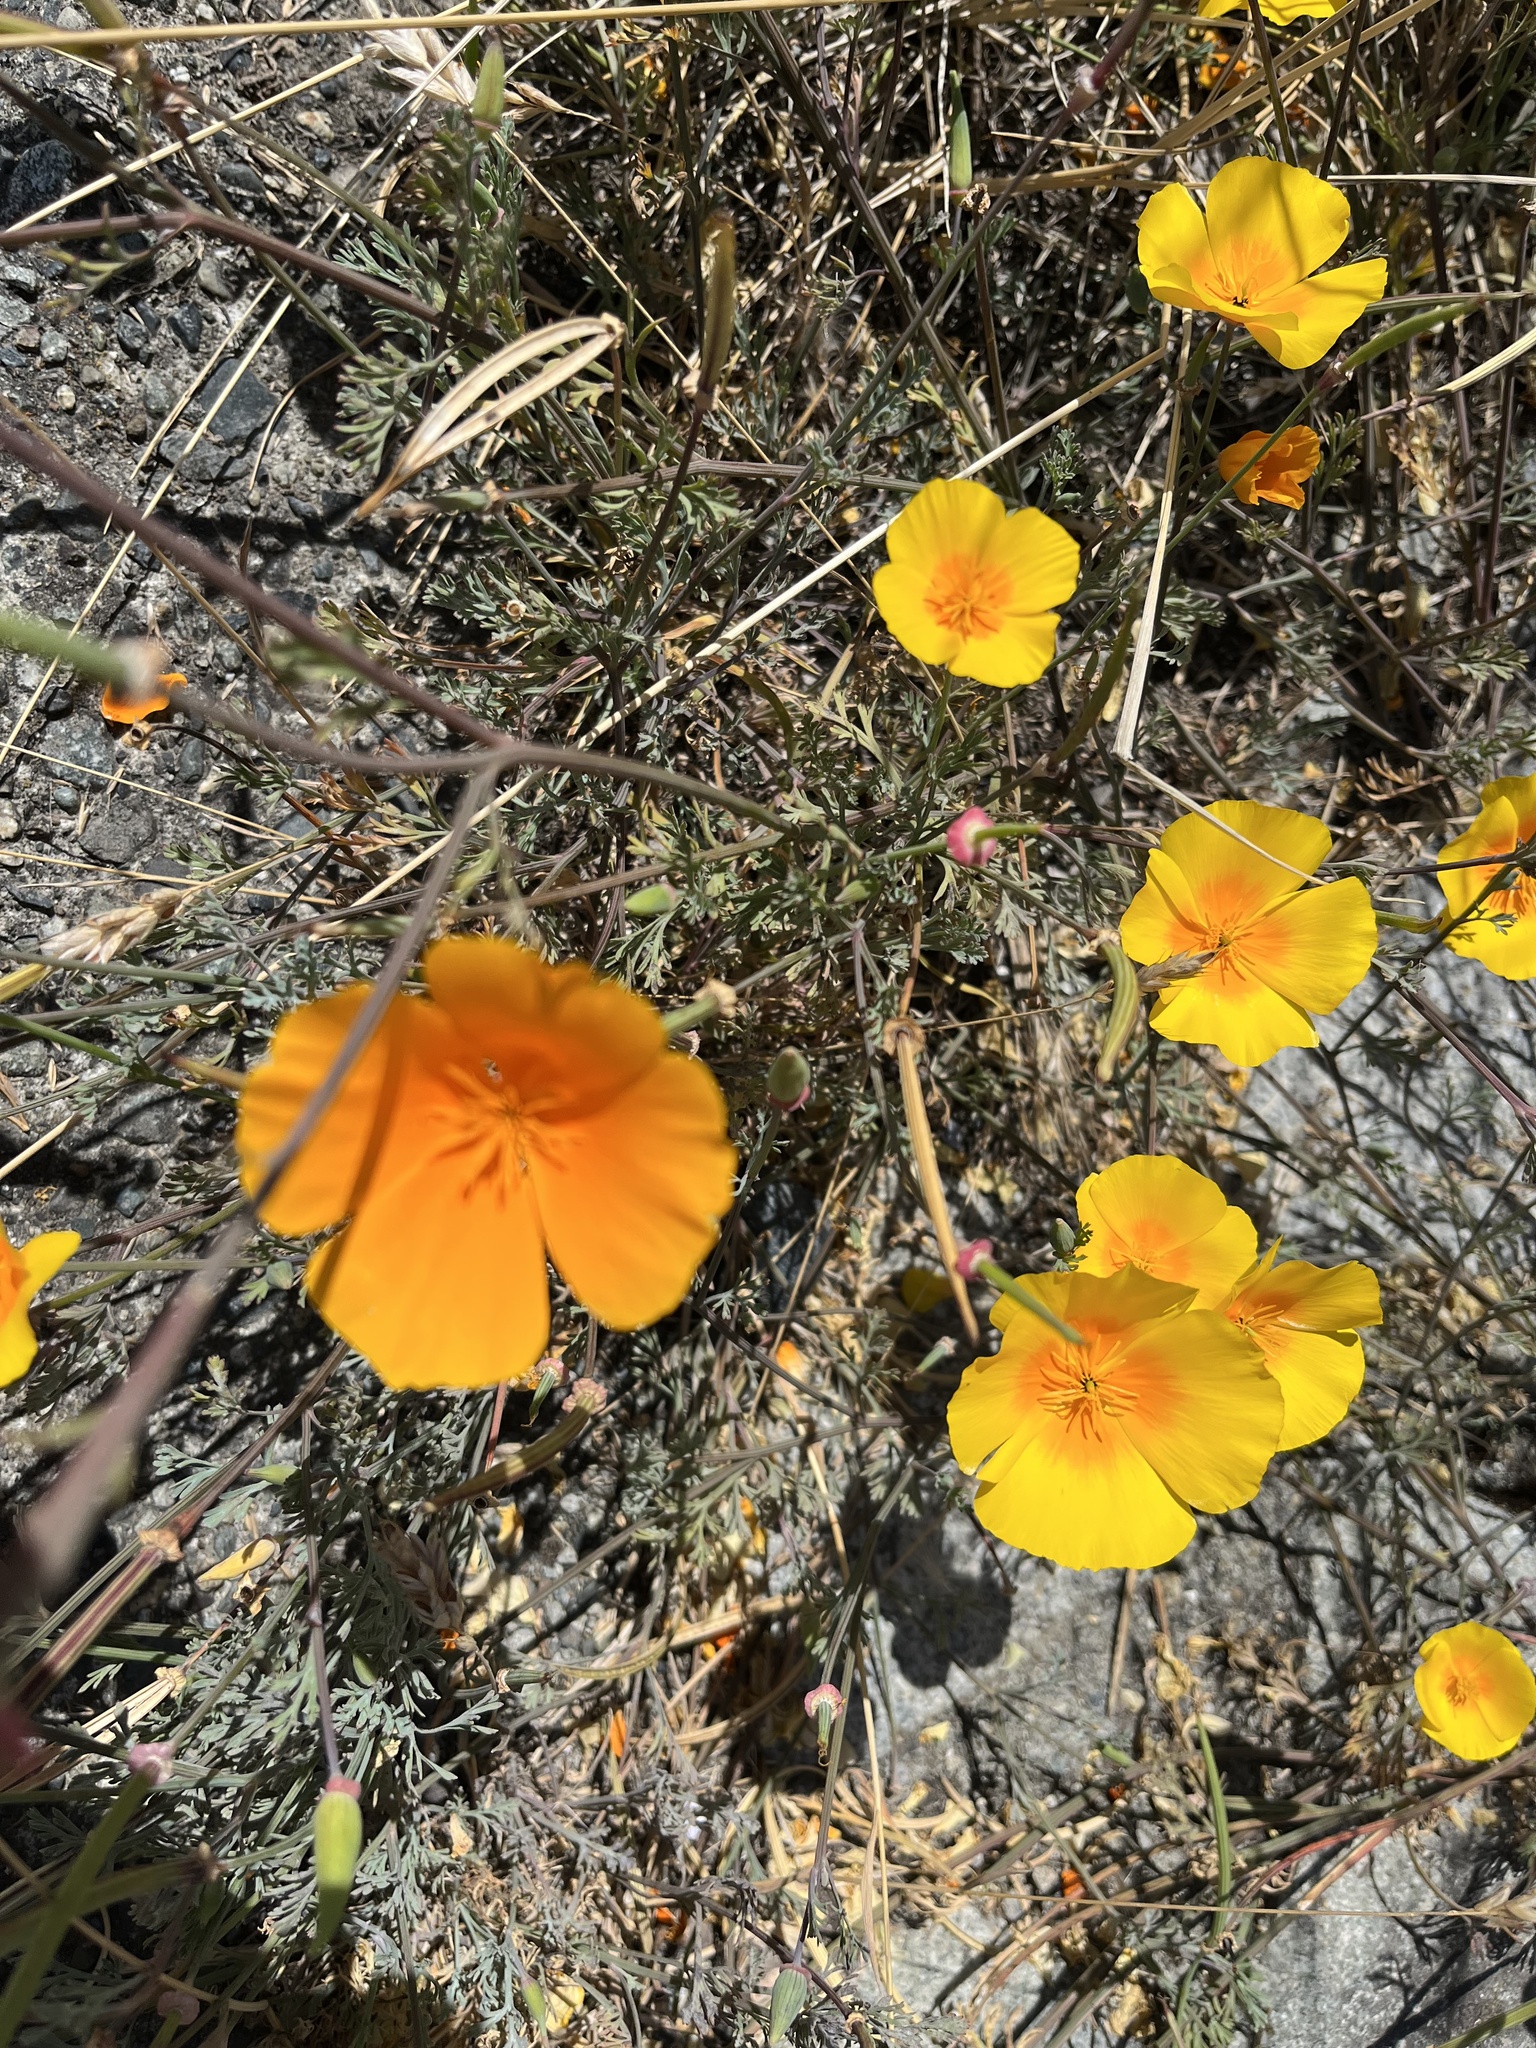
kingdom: Plantae
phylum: Tracheophyta
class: Magnoliopsida
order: Ranunculales
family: Papaveraceae
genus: Eschscholzia
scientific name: Eschscholzia californica
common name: California poppy
